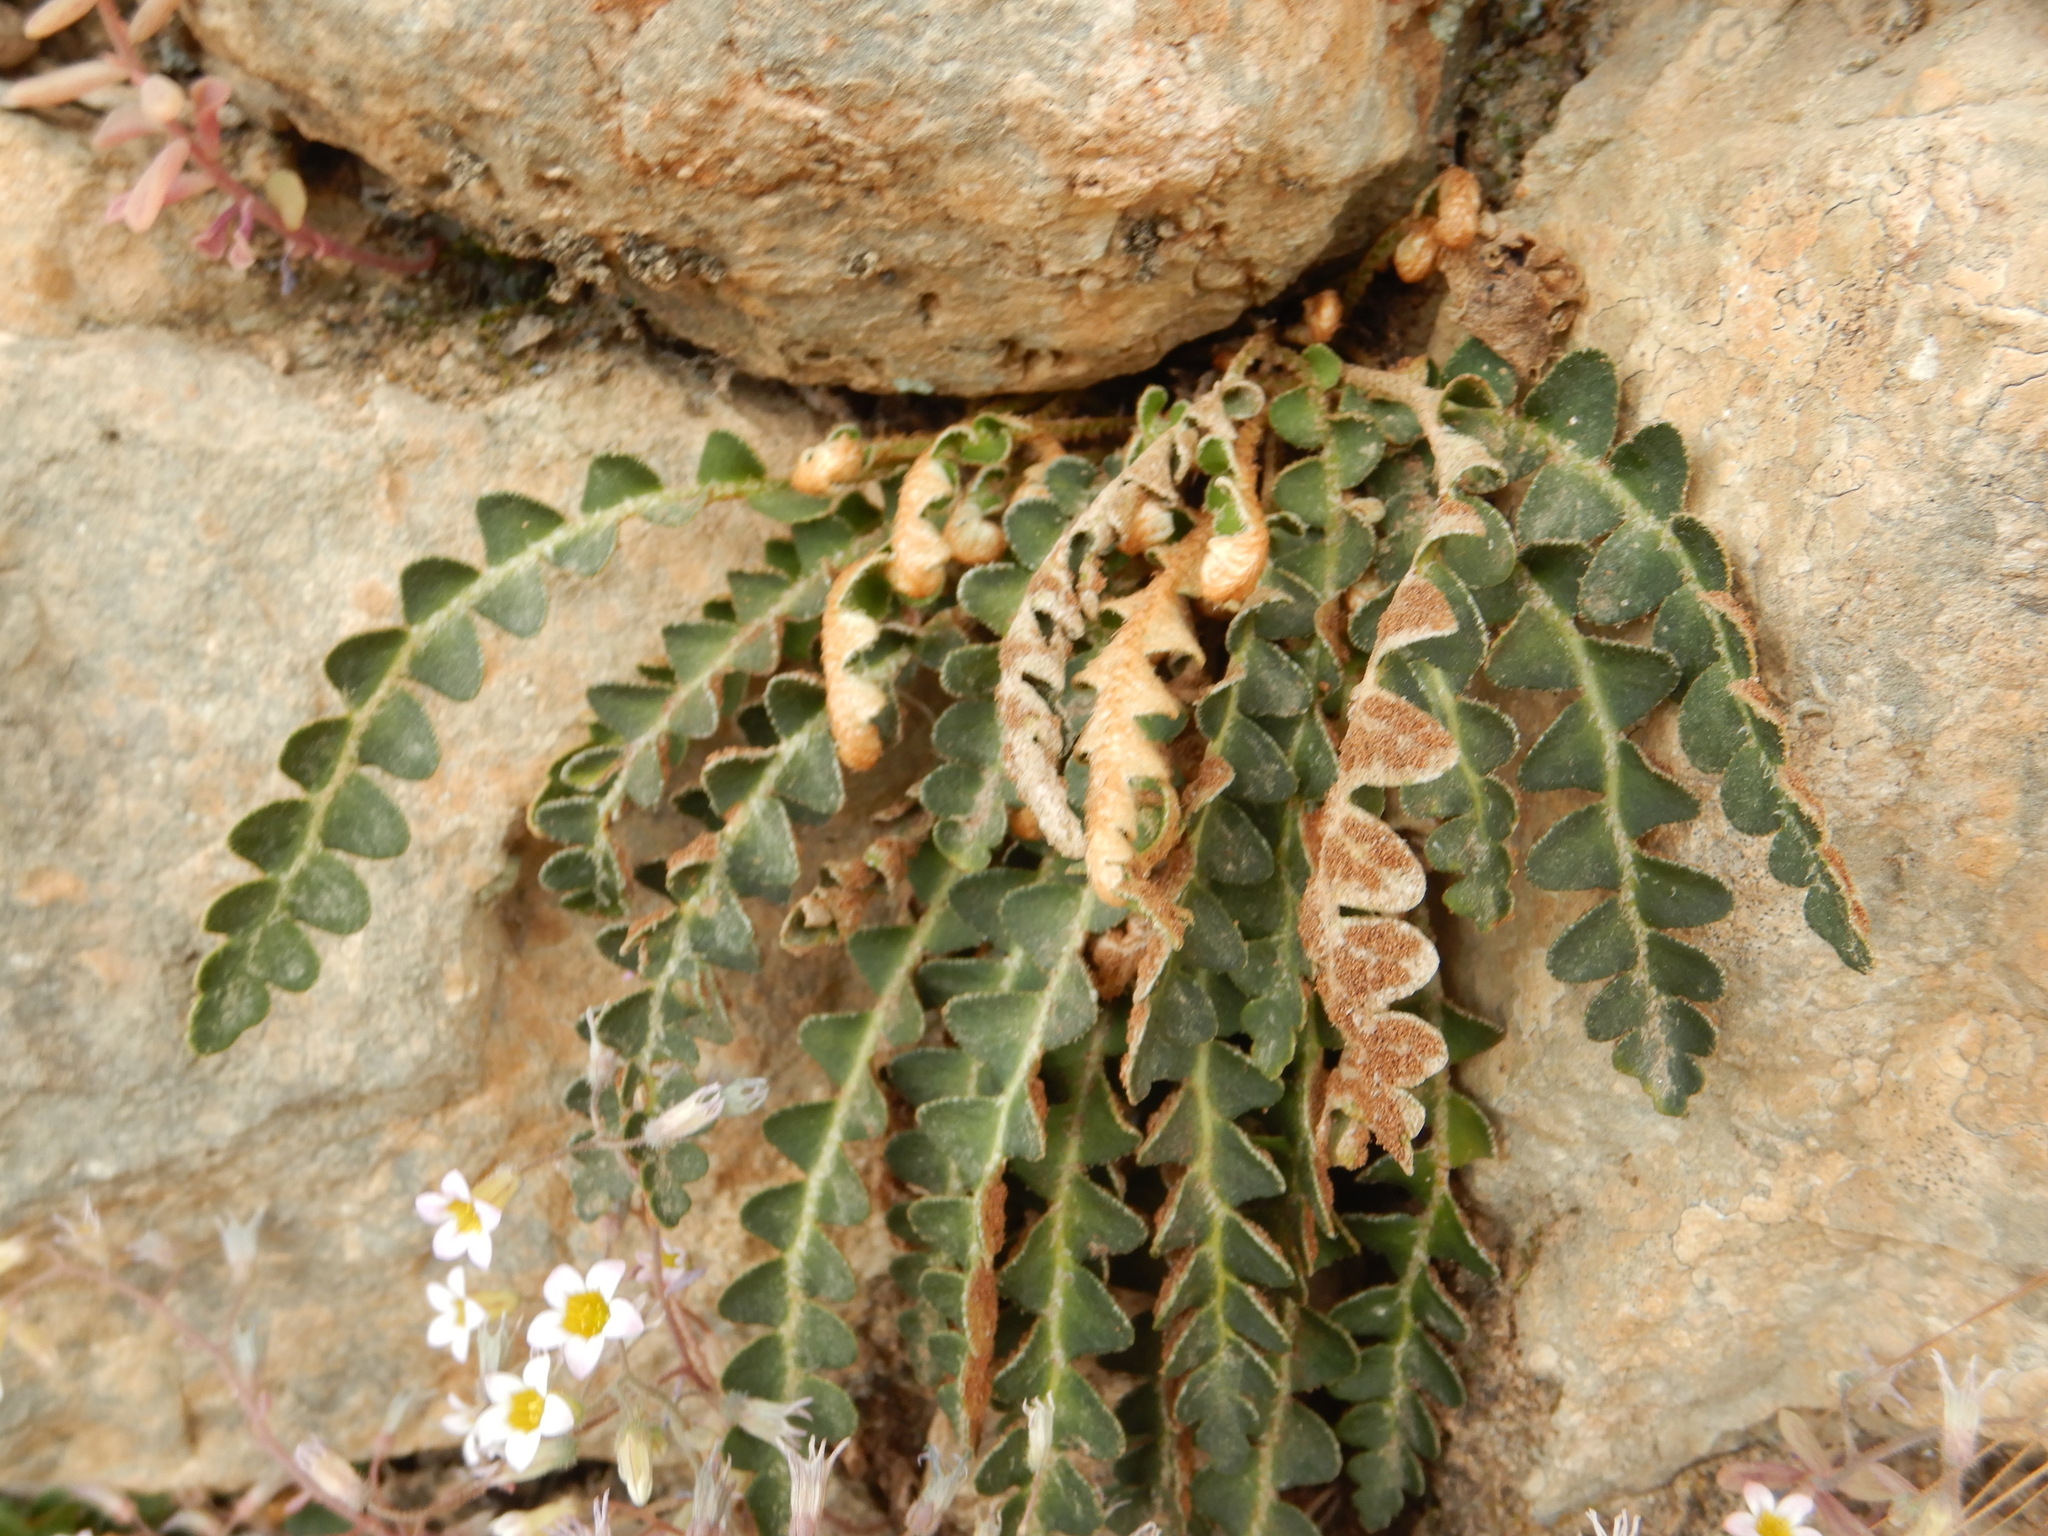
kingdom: Plantae
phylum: Tracheophyta
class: Polypodiopsida
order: Polypodiales
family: Aspleniaceae
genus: Asplenium
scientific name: Asplenium ceterach
